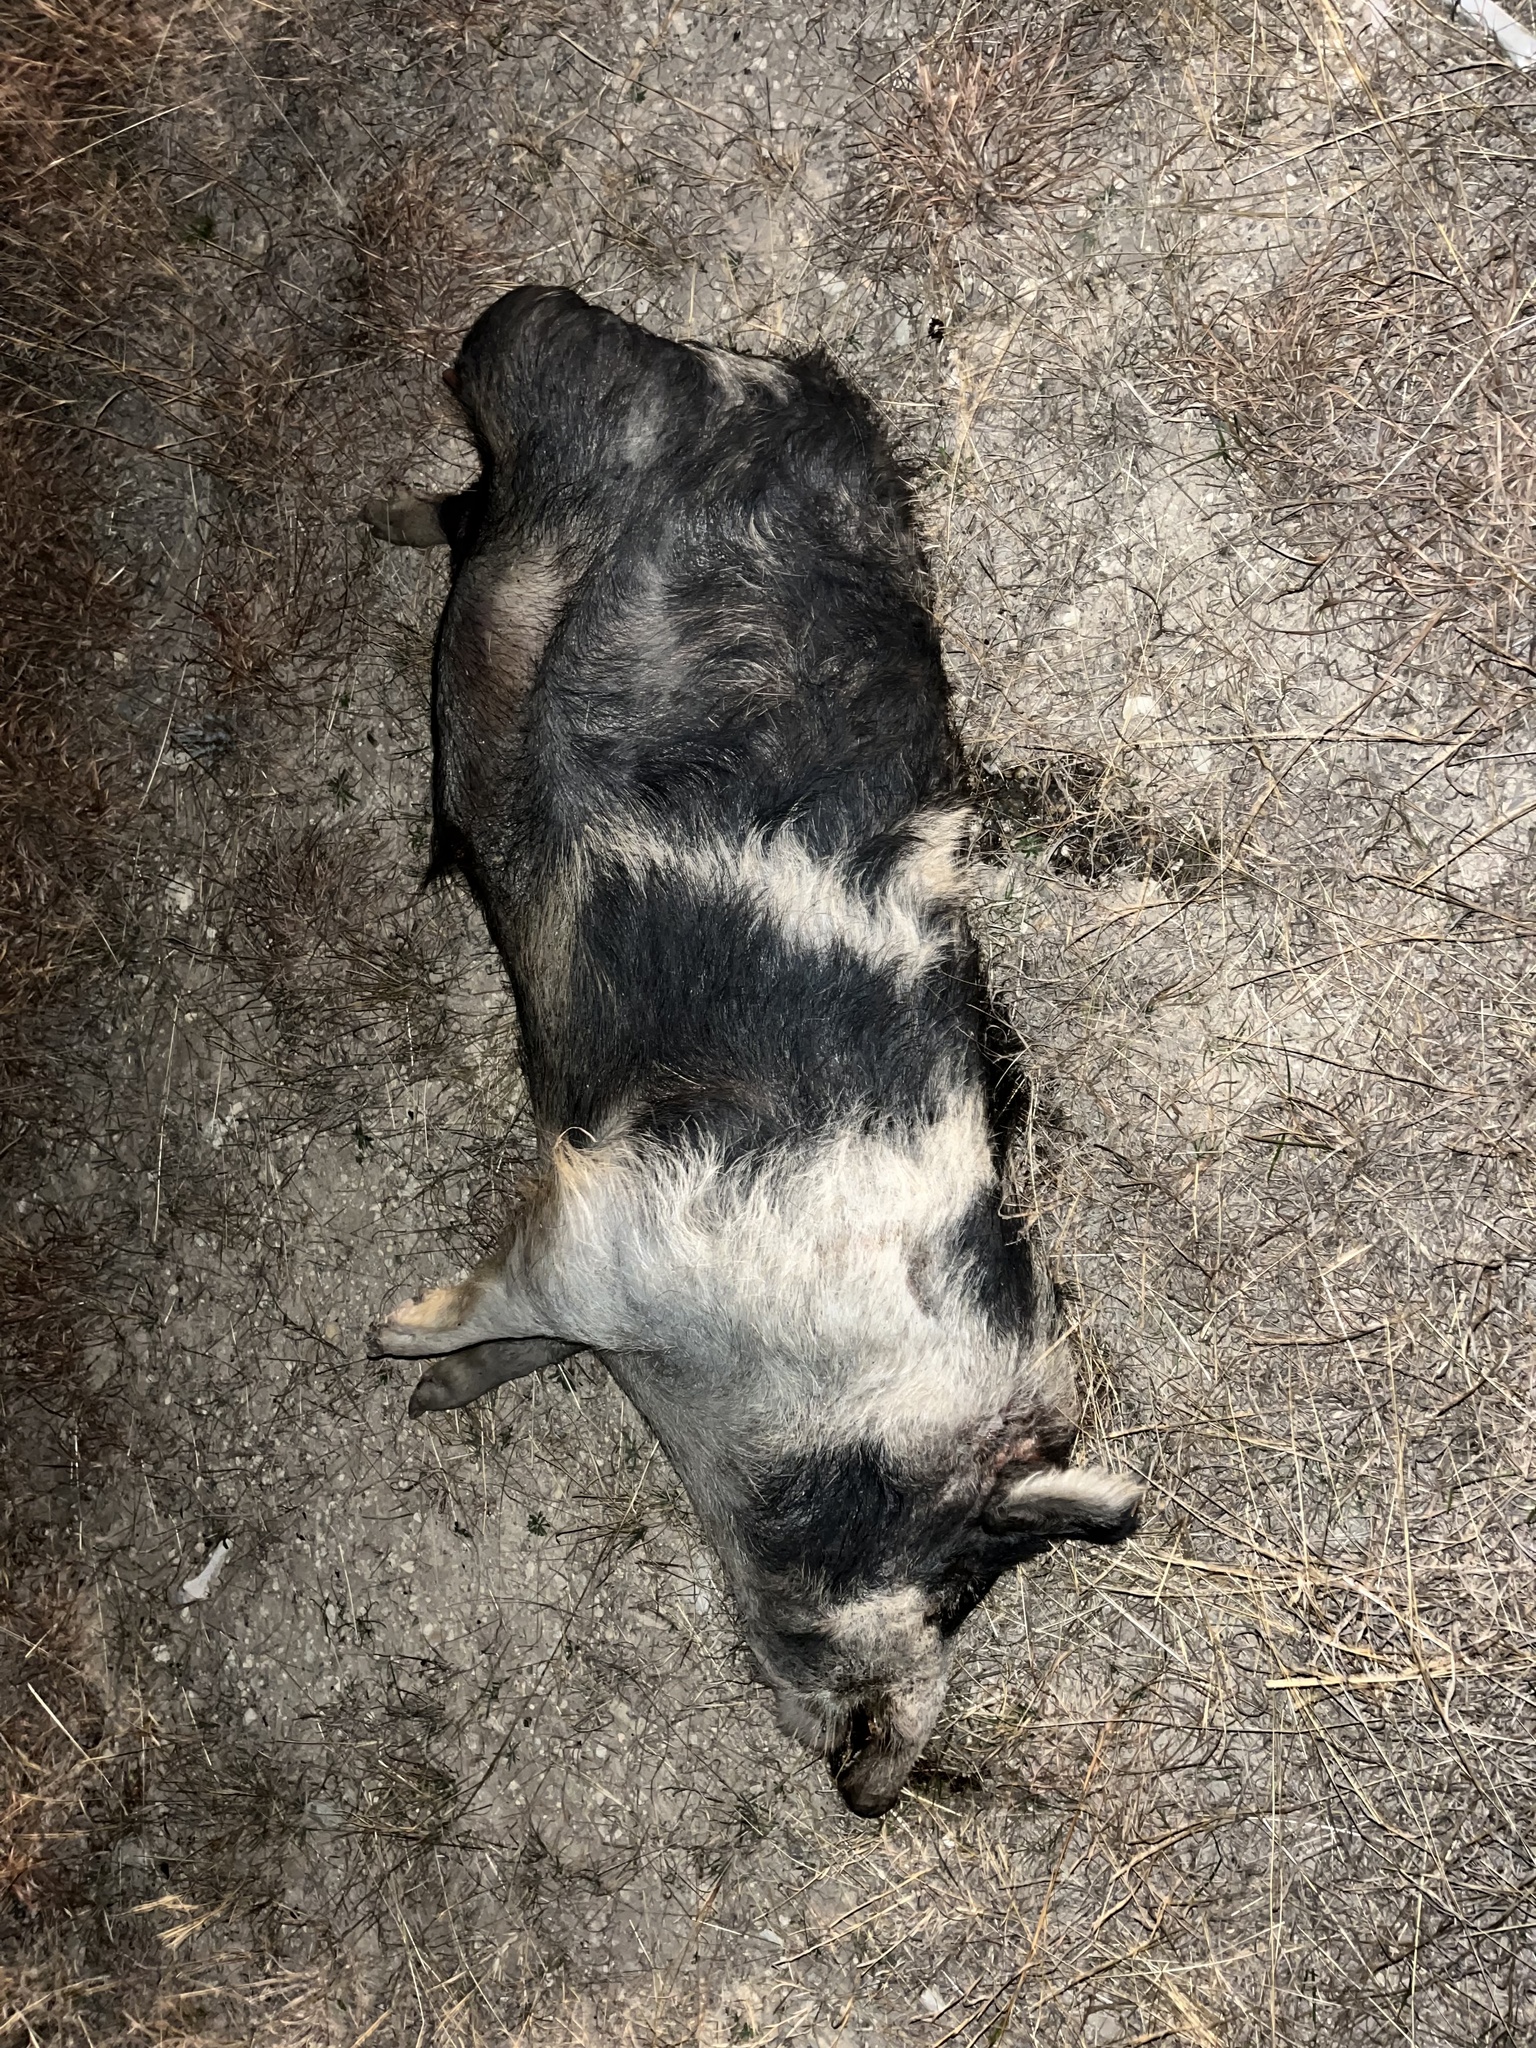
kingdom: Animalia
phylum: Chordata
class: Mammalia
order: Artiodactyla
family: Suidae
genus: Sus
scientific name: Sus scrofa
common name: Wild boar
